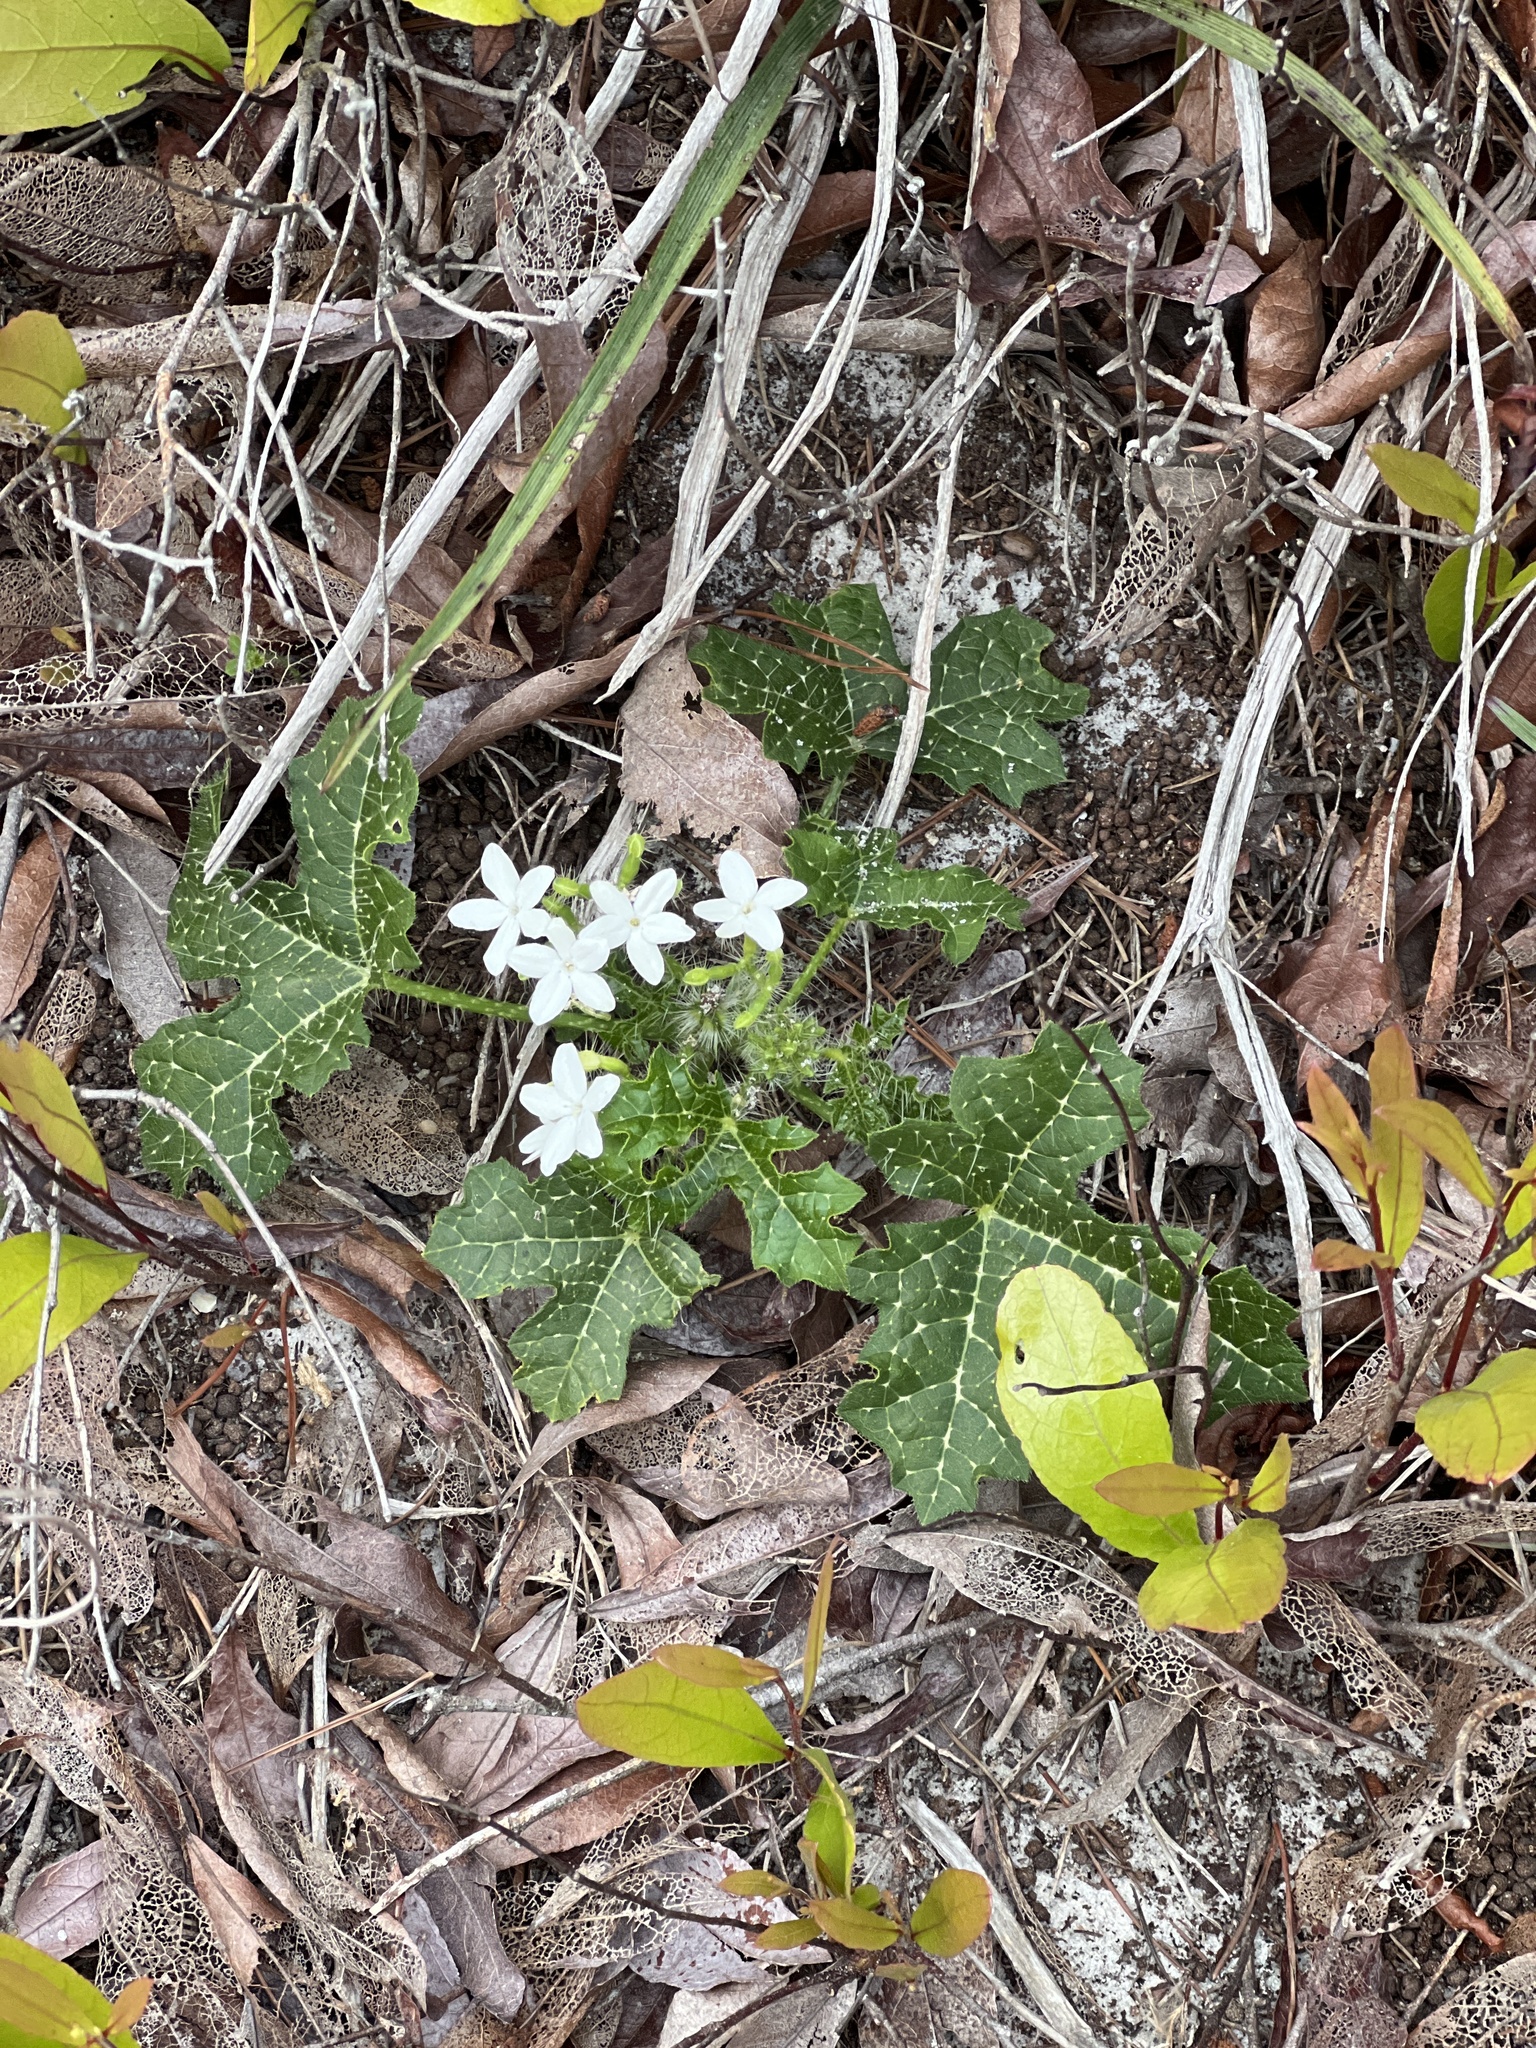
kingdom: Plantae
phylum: Tracheophyta
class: Magnoliopsida
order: Malpighiales
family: Euphorbiaceae
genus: Cnidoscolus
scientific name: Cnidoscolus stimulosus
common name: Bull-nettle
